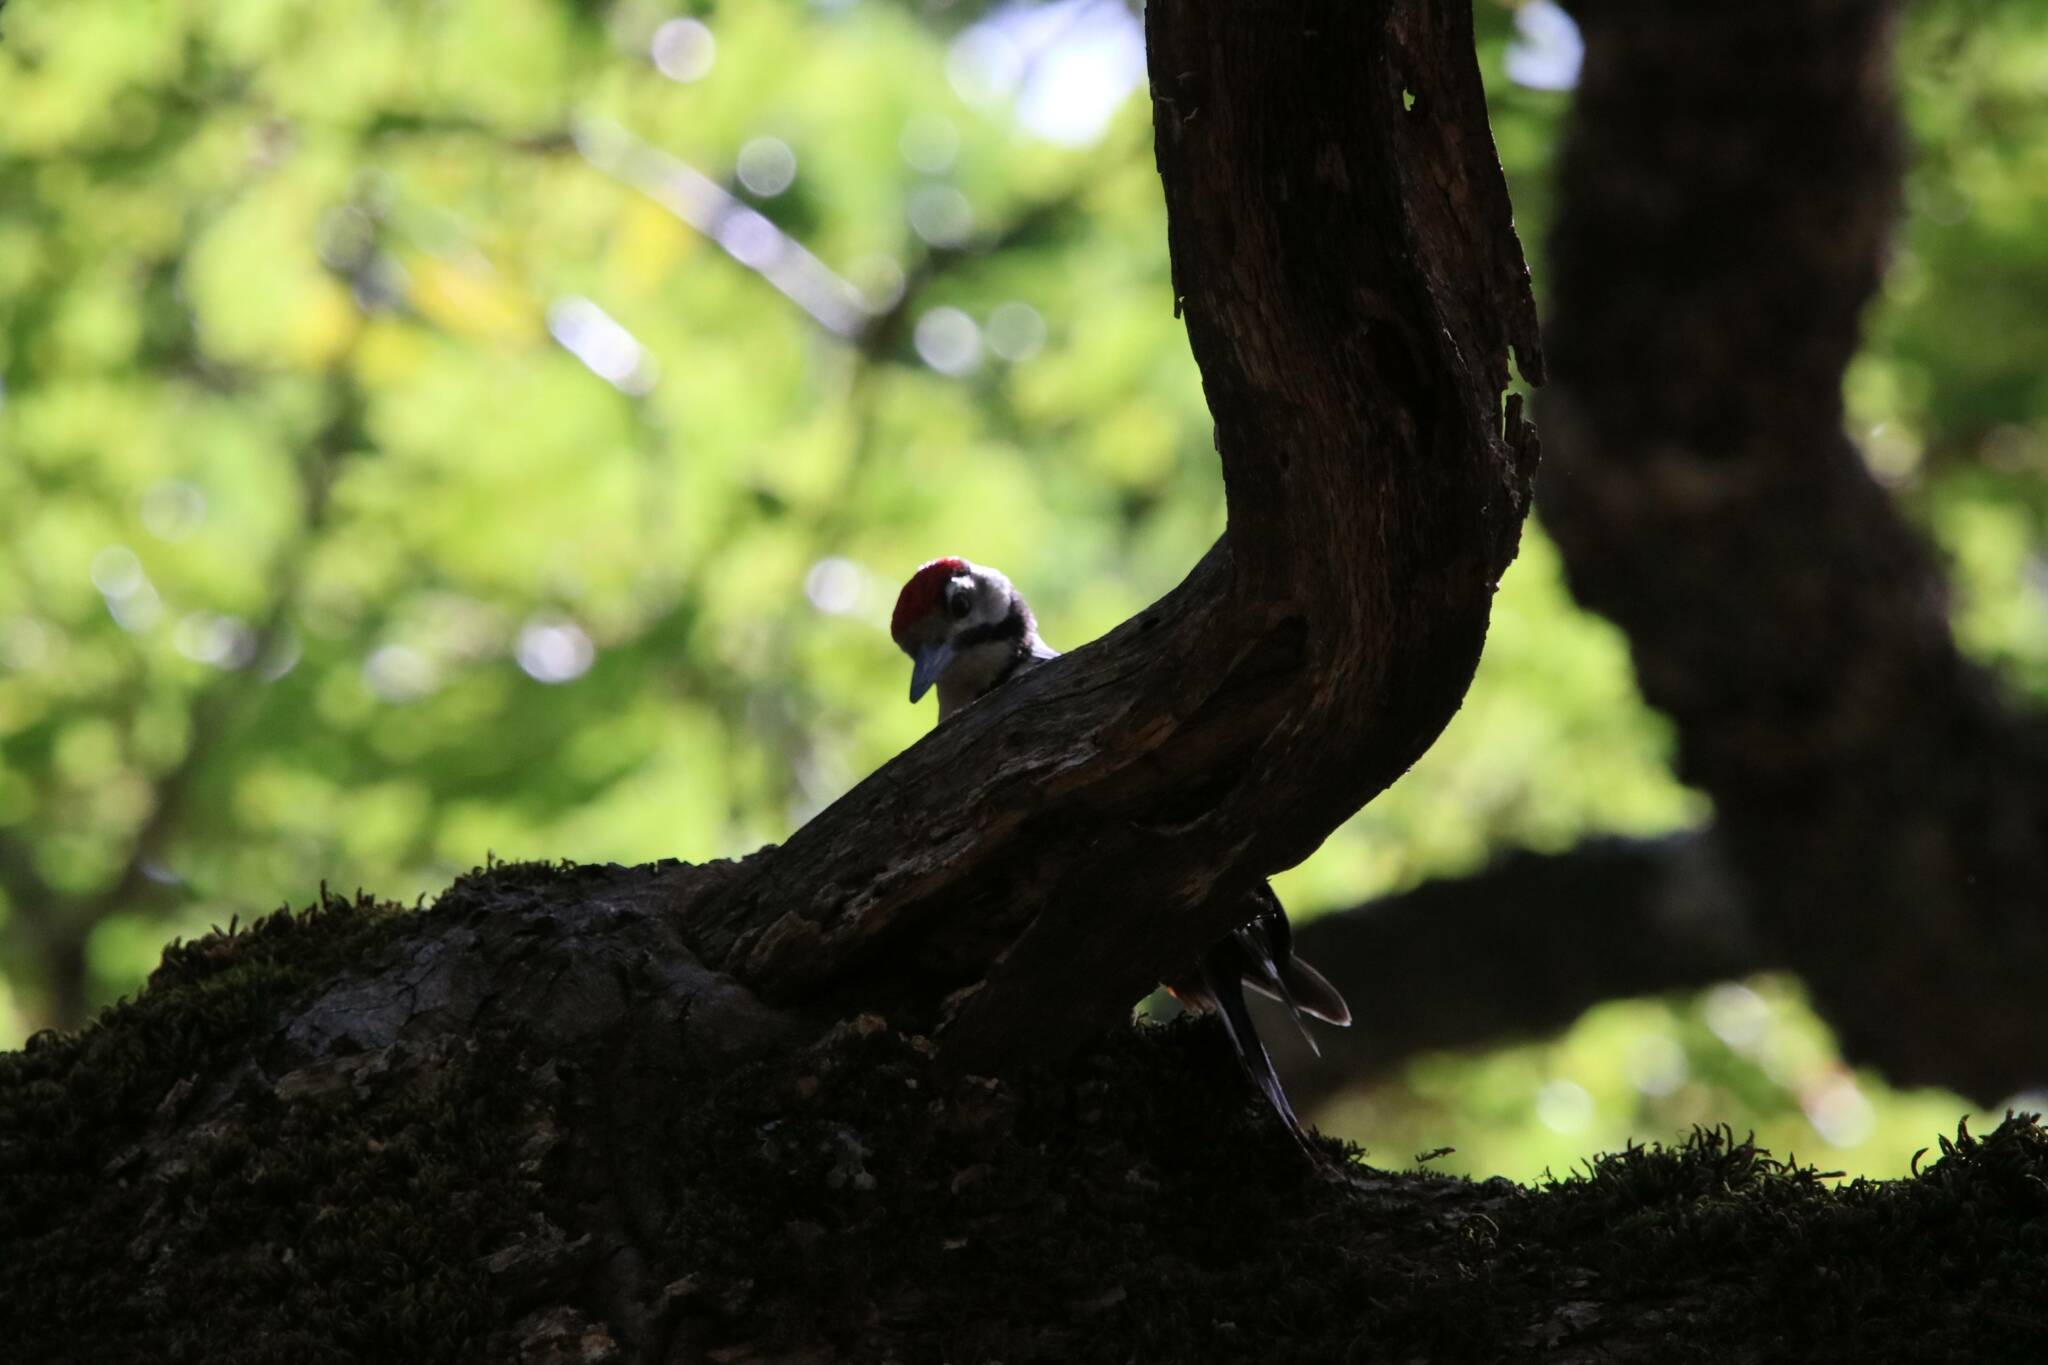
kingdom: Animalia
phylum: Chordata
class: Aves
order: Piciformes
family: Picidae
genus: Dendrocopos
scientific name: Dendrocopos major
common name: Great spotted woodpecker
